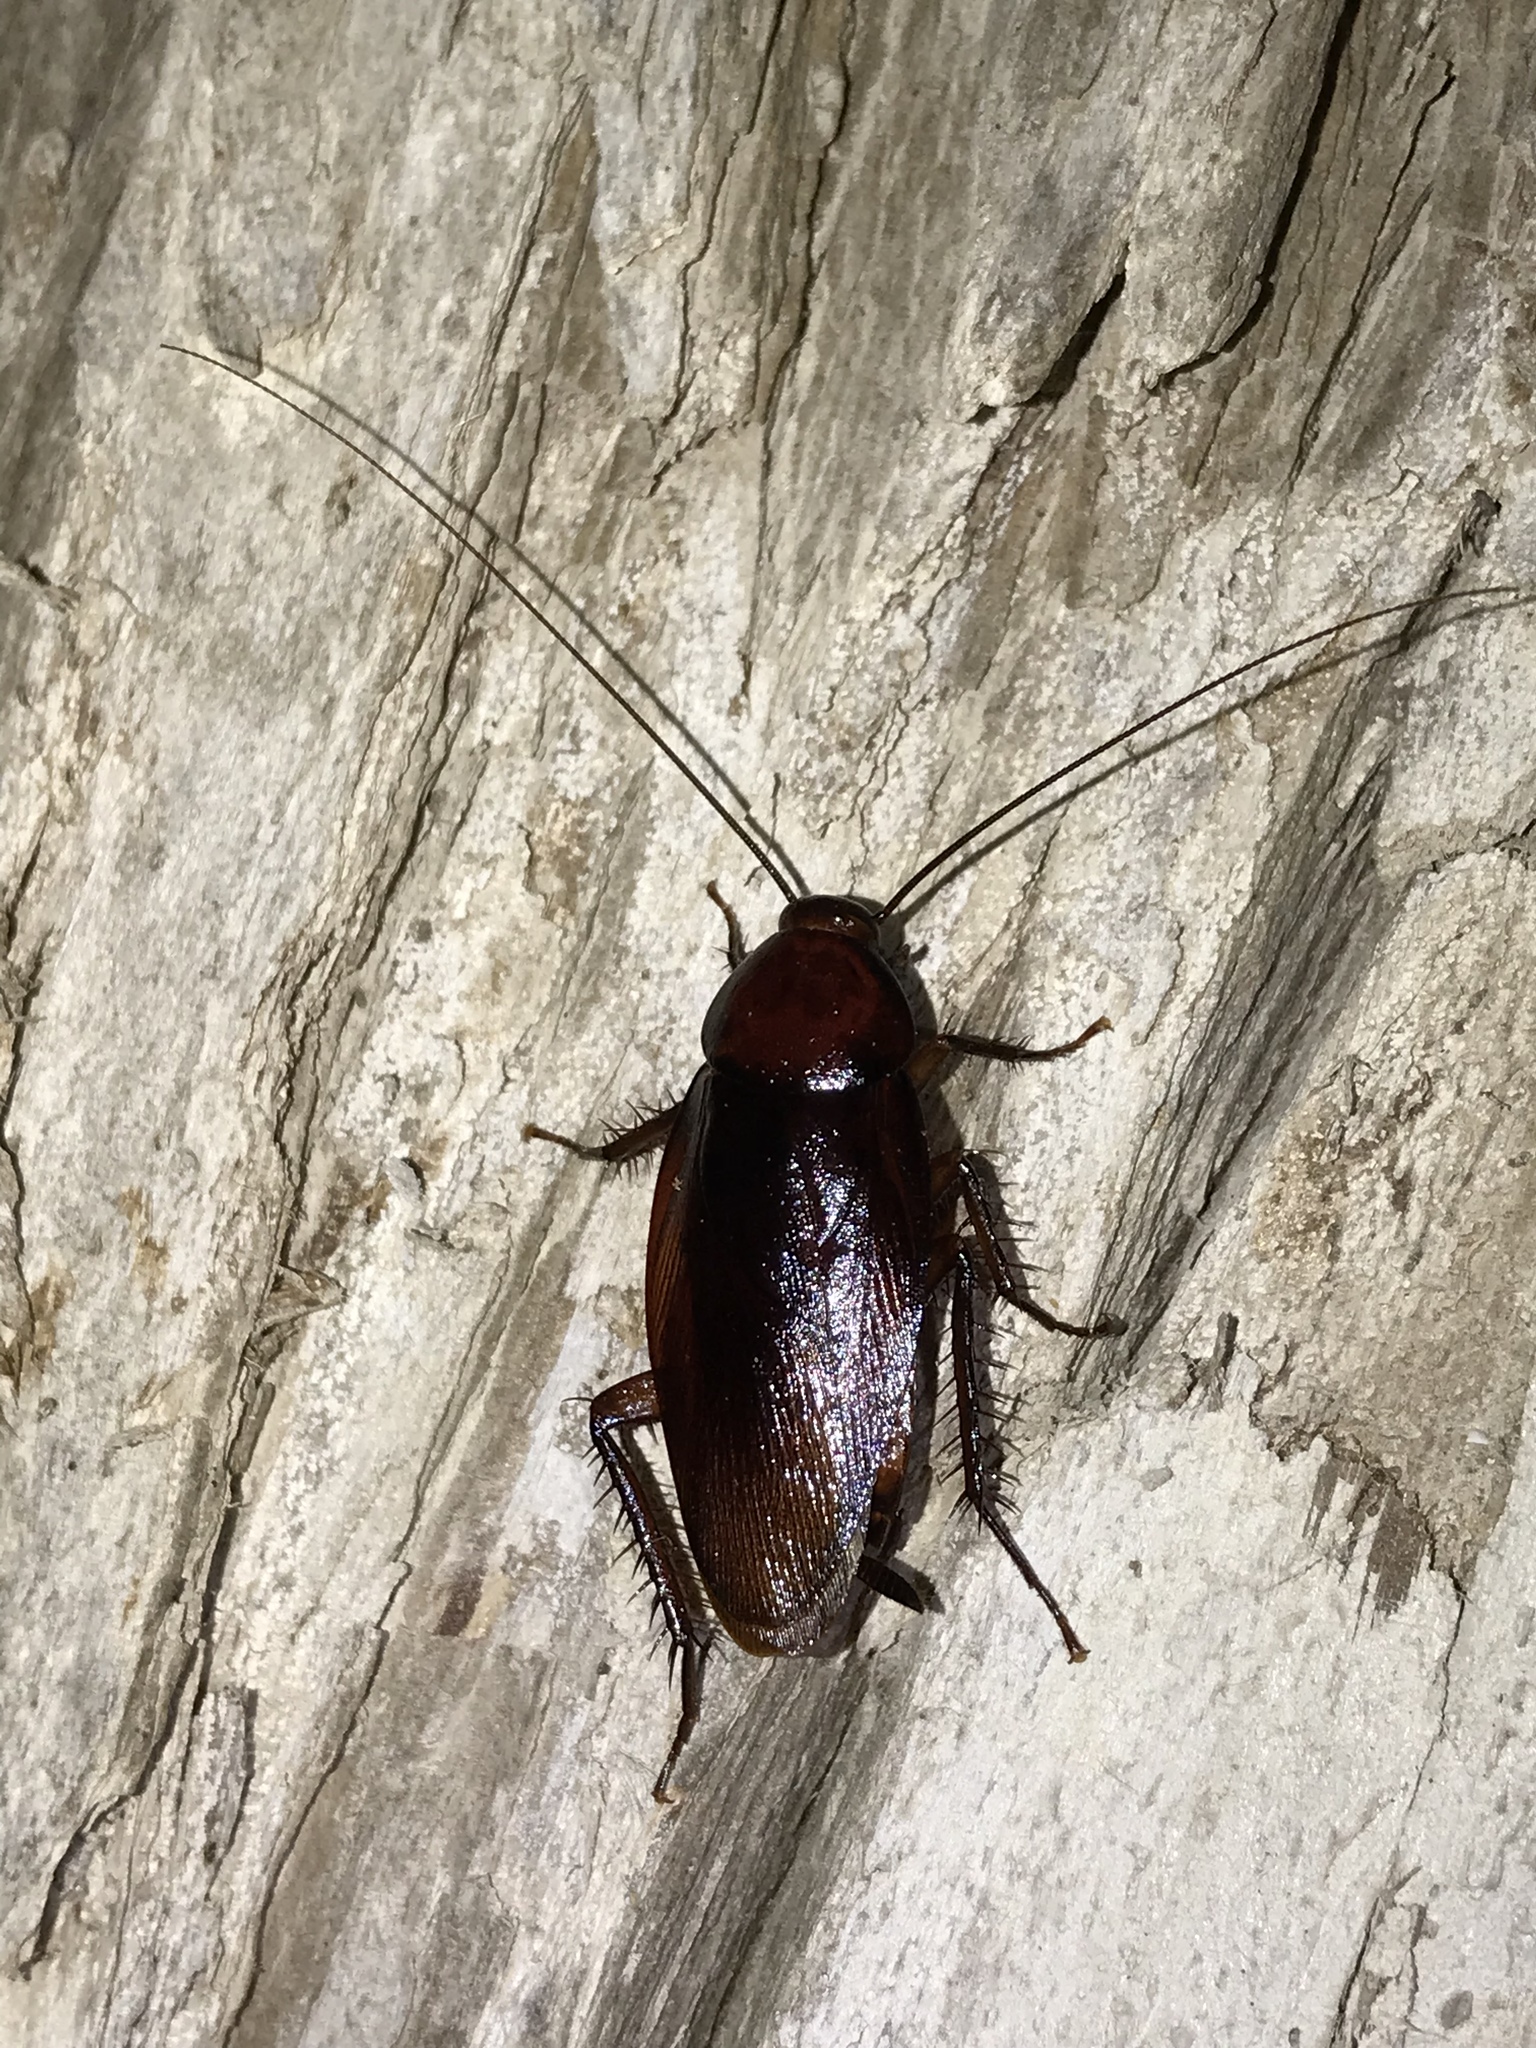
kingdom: Animalia
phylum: Arthropoda
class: Insecta
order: Blattodea
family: Blattidae
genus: Periplaneta
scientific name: Periplaneta fuliginosa
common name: Smokeybrown cockroad
